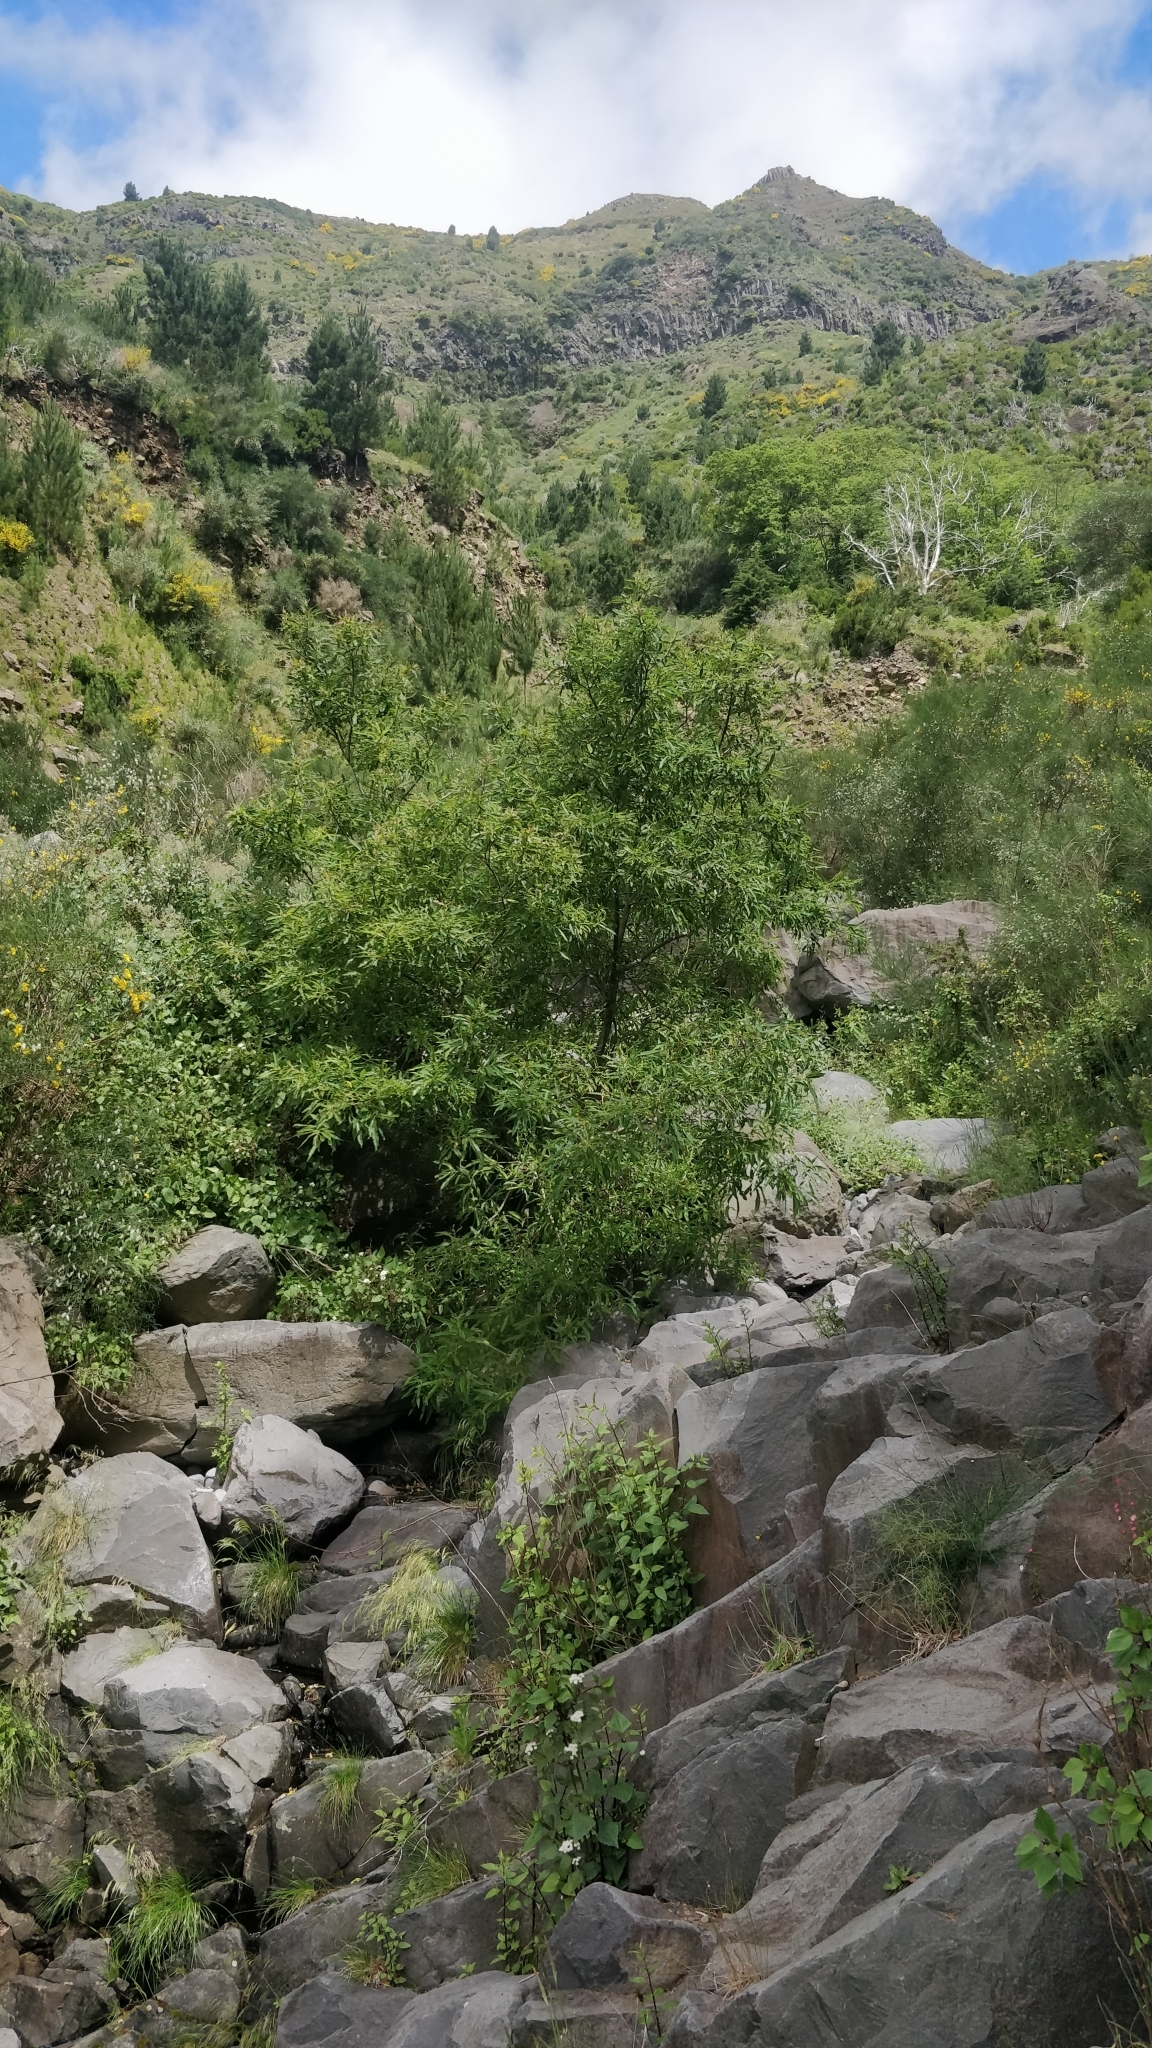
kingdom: Plantae
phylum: Tracheophyta
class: Magnoliopsida
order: Malpighiales
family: Salicaceae
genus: Salix
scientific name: Salix canariensis
